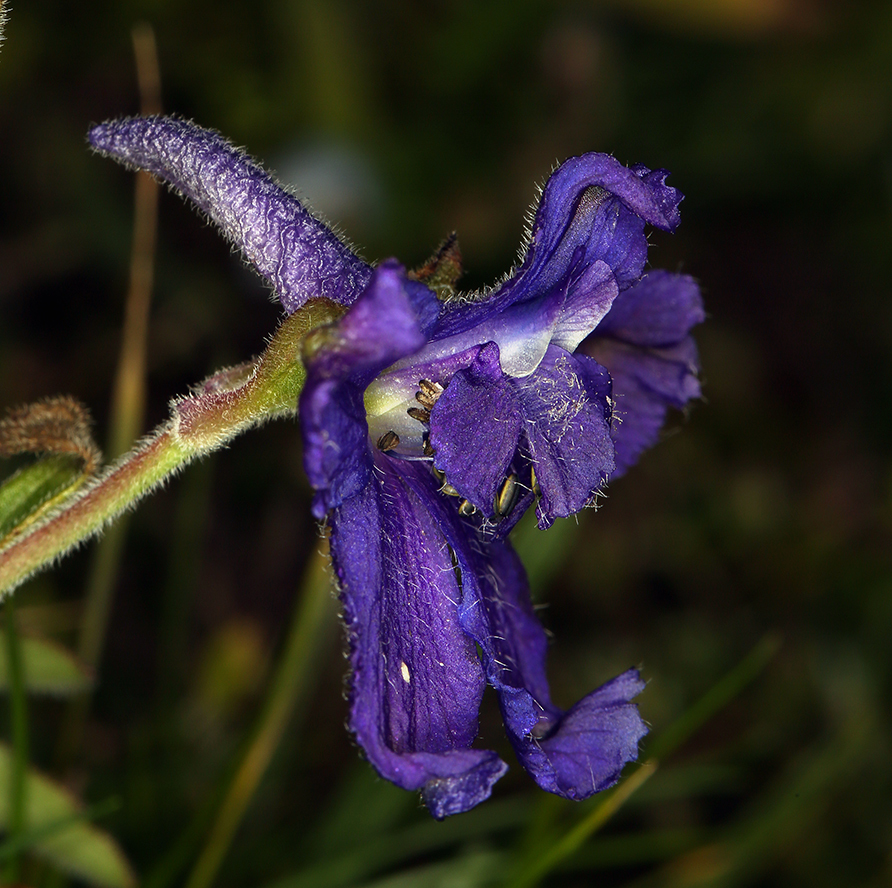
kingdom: Plantae
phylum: Tracheophyta
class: Magnoliopsida
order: Ranunculales
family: Ranunculaceae
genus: Delphinium
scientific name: Delphinium decorum
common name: Coast larkspur
